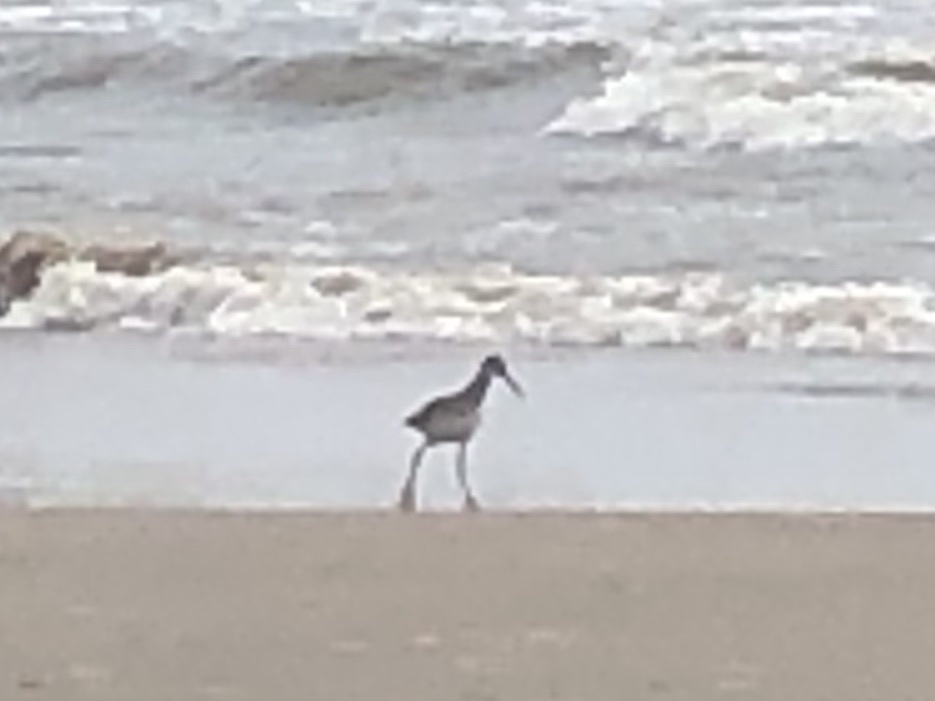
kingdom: Animalia
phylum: Chordata
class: Aves
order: Charadriiformes
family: Scolopacidae
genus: Tringa
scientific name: Tringa semipalmata
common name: Willet
